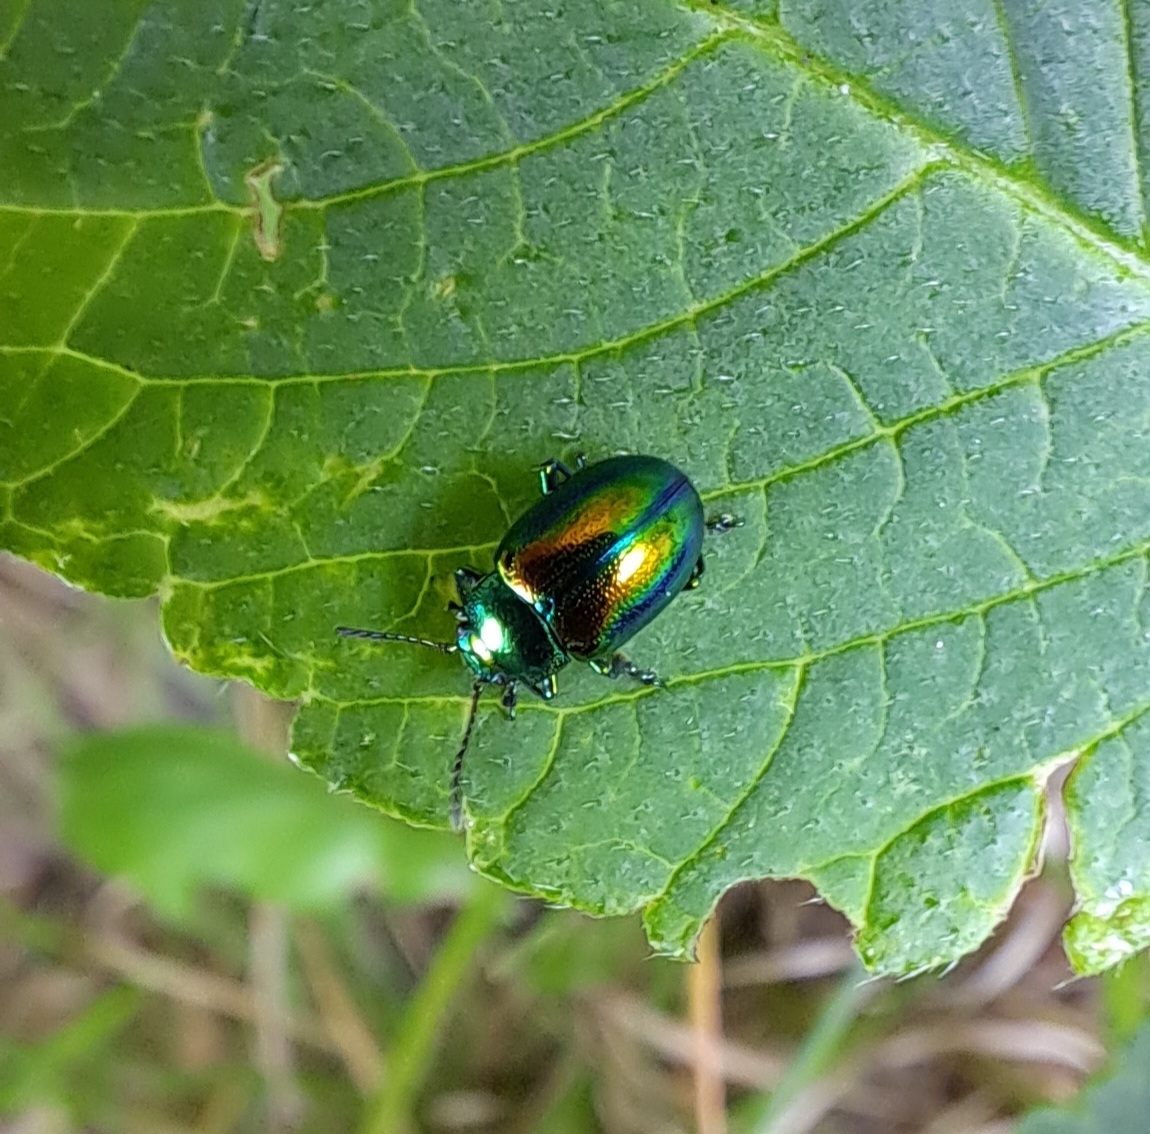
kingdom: Animalia
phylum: Arthropoda
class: Insecta
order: Coleoptera
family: Chrysomelidae
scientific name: Chrysomelidae
